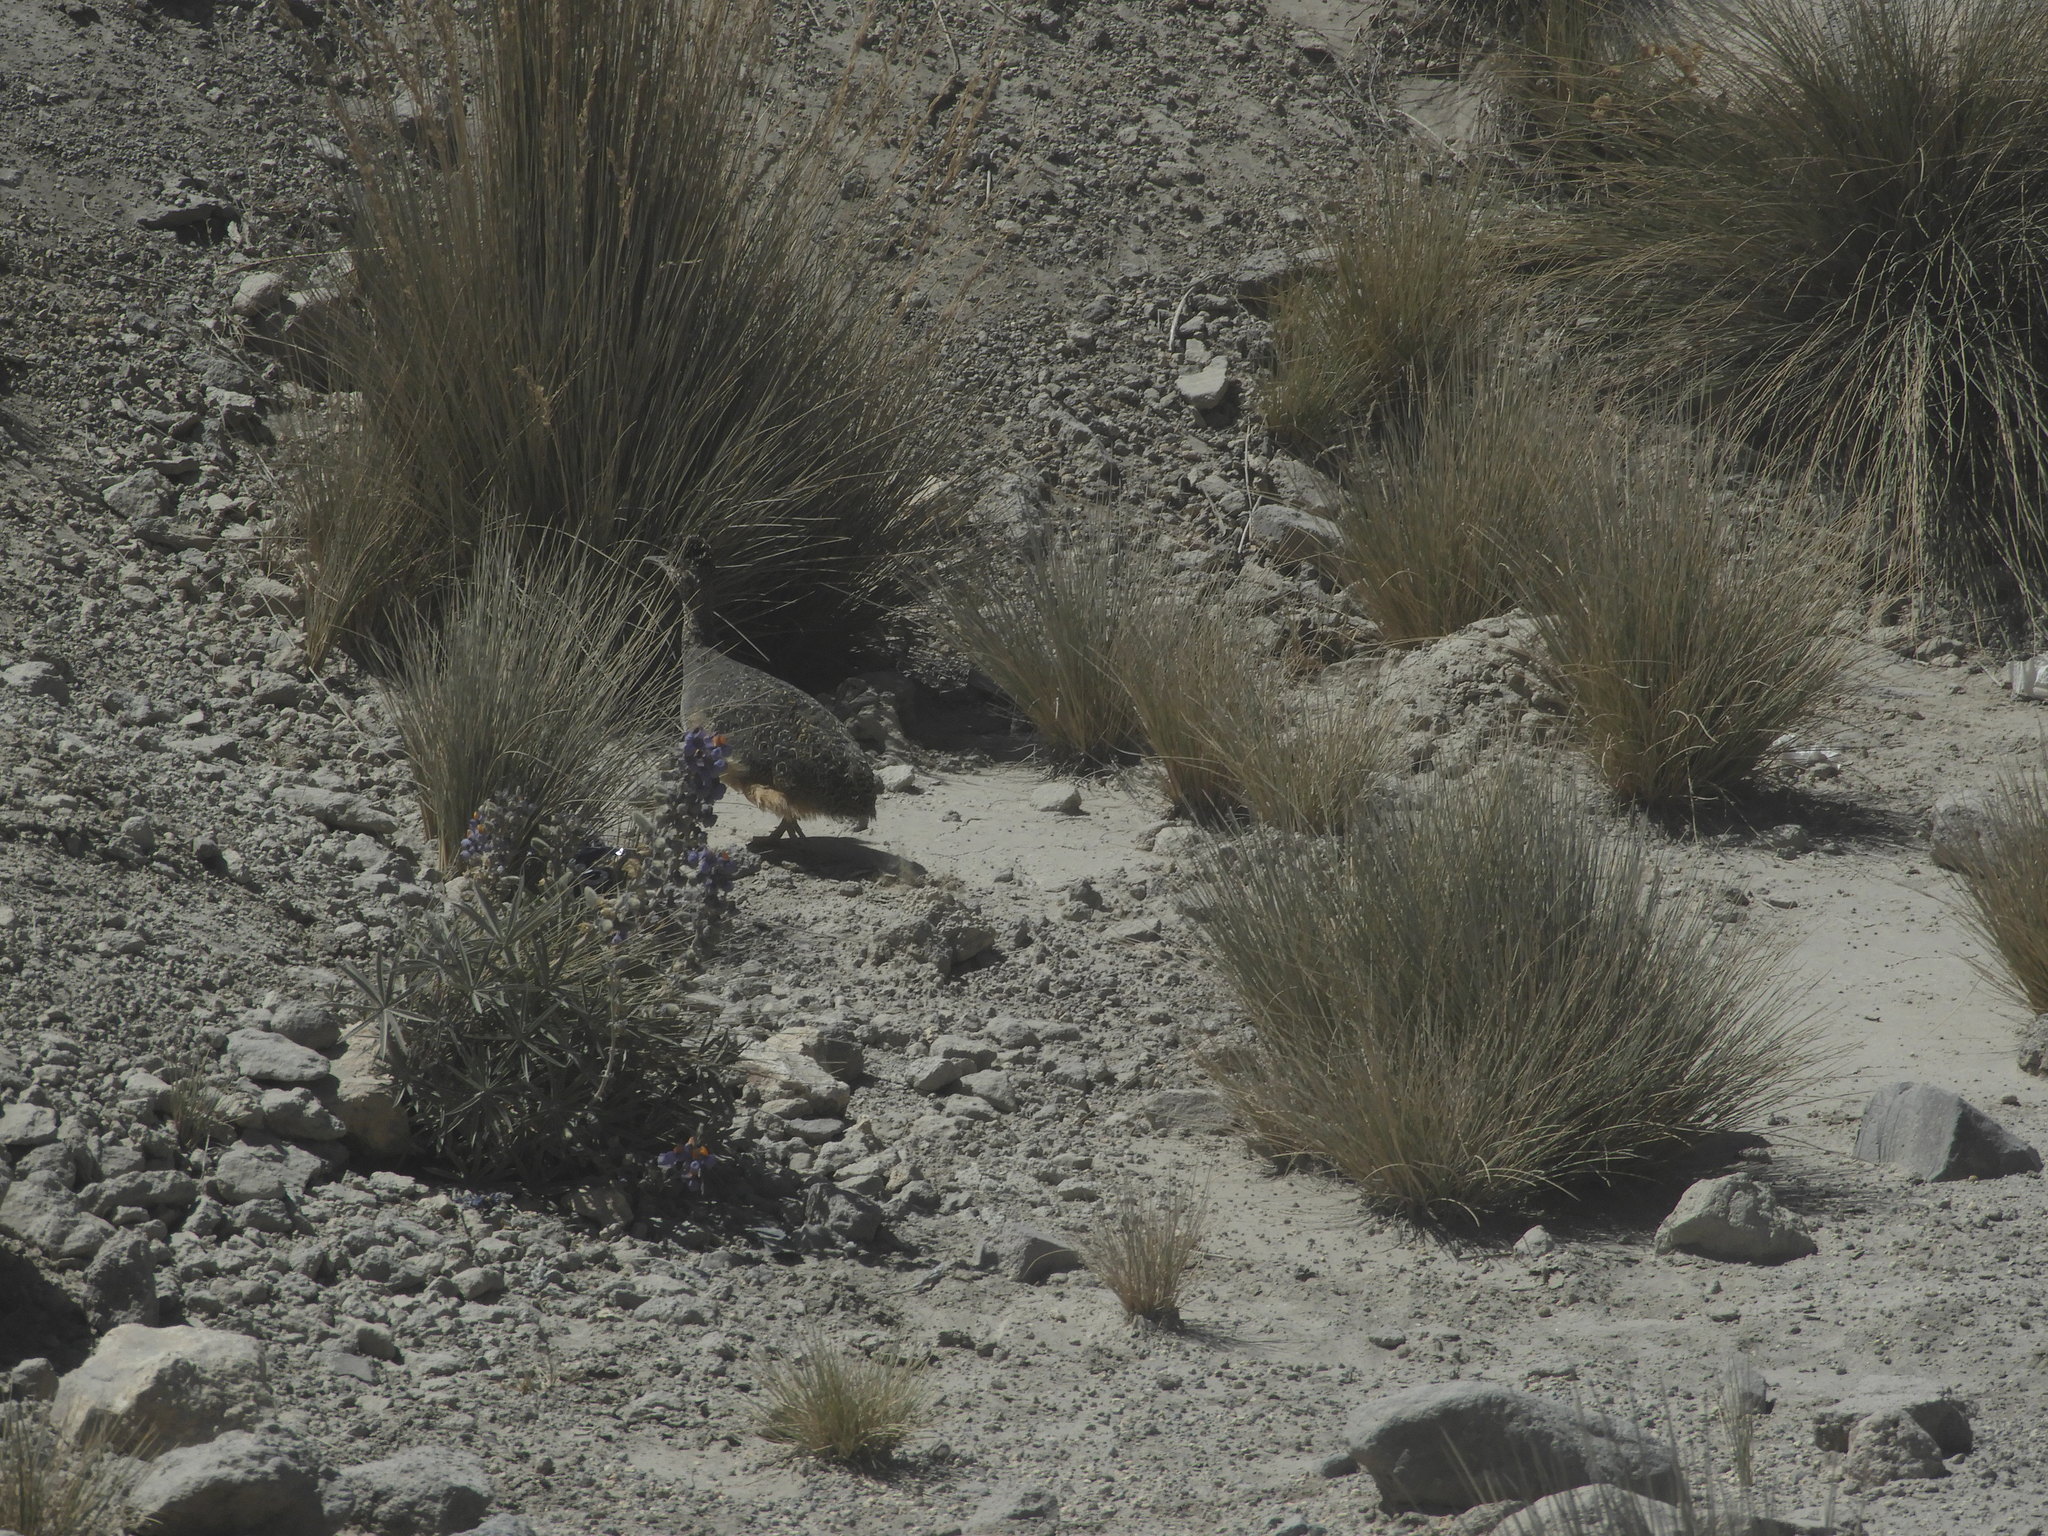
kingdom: Animalia
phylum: Chordata
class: Aves
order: Tinamiformes
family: Tinamidae
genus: Nothoprocta
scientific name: Nothoprocta ornata
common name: Ornate tinamou
